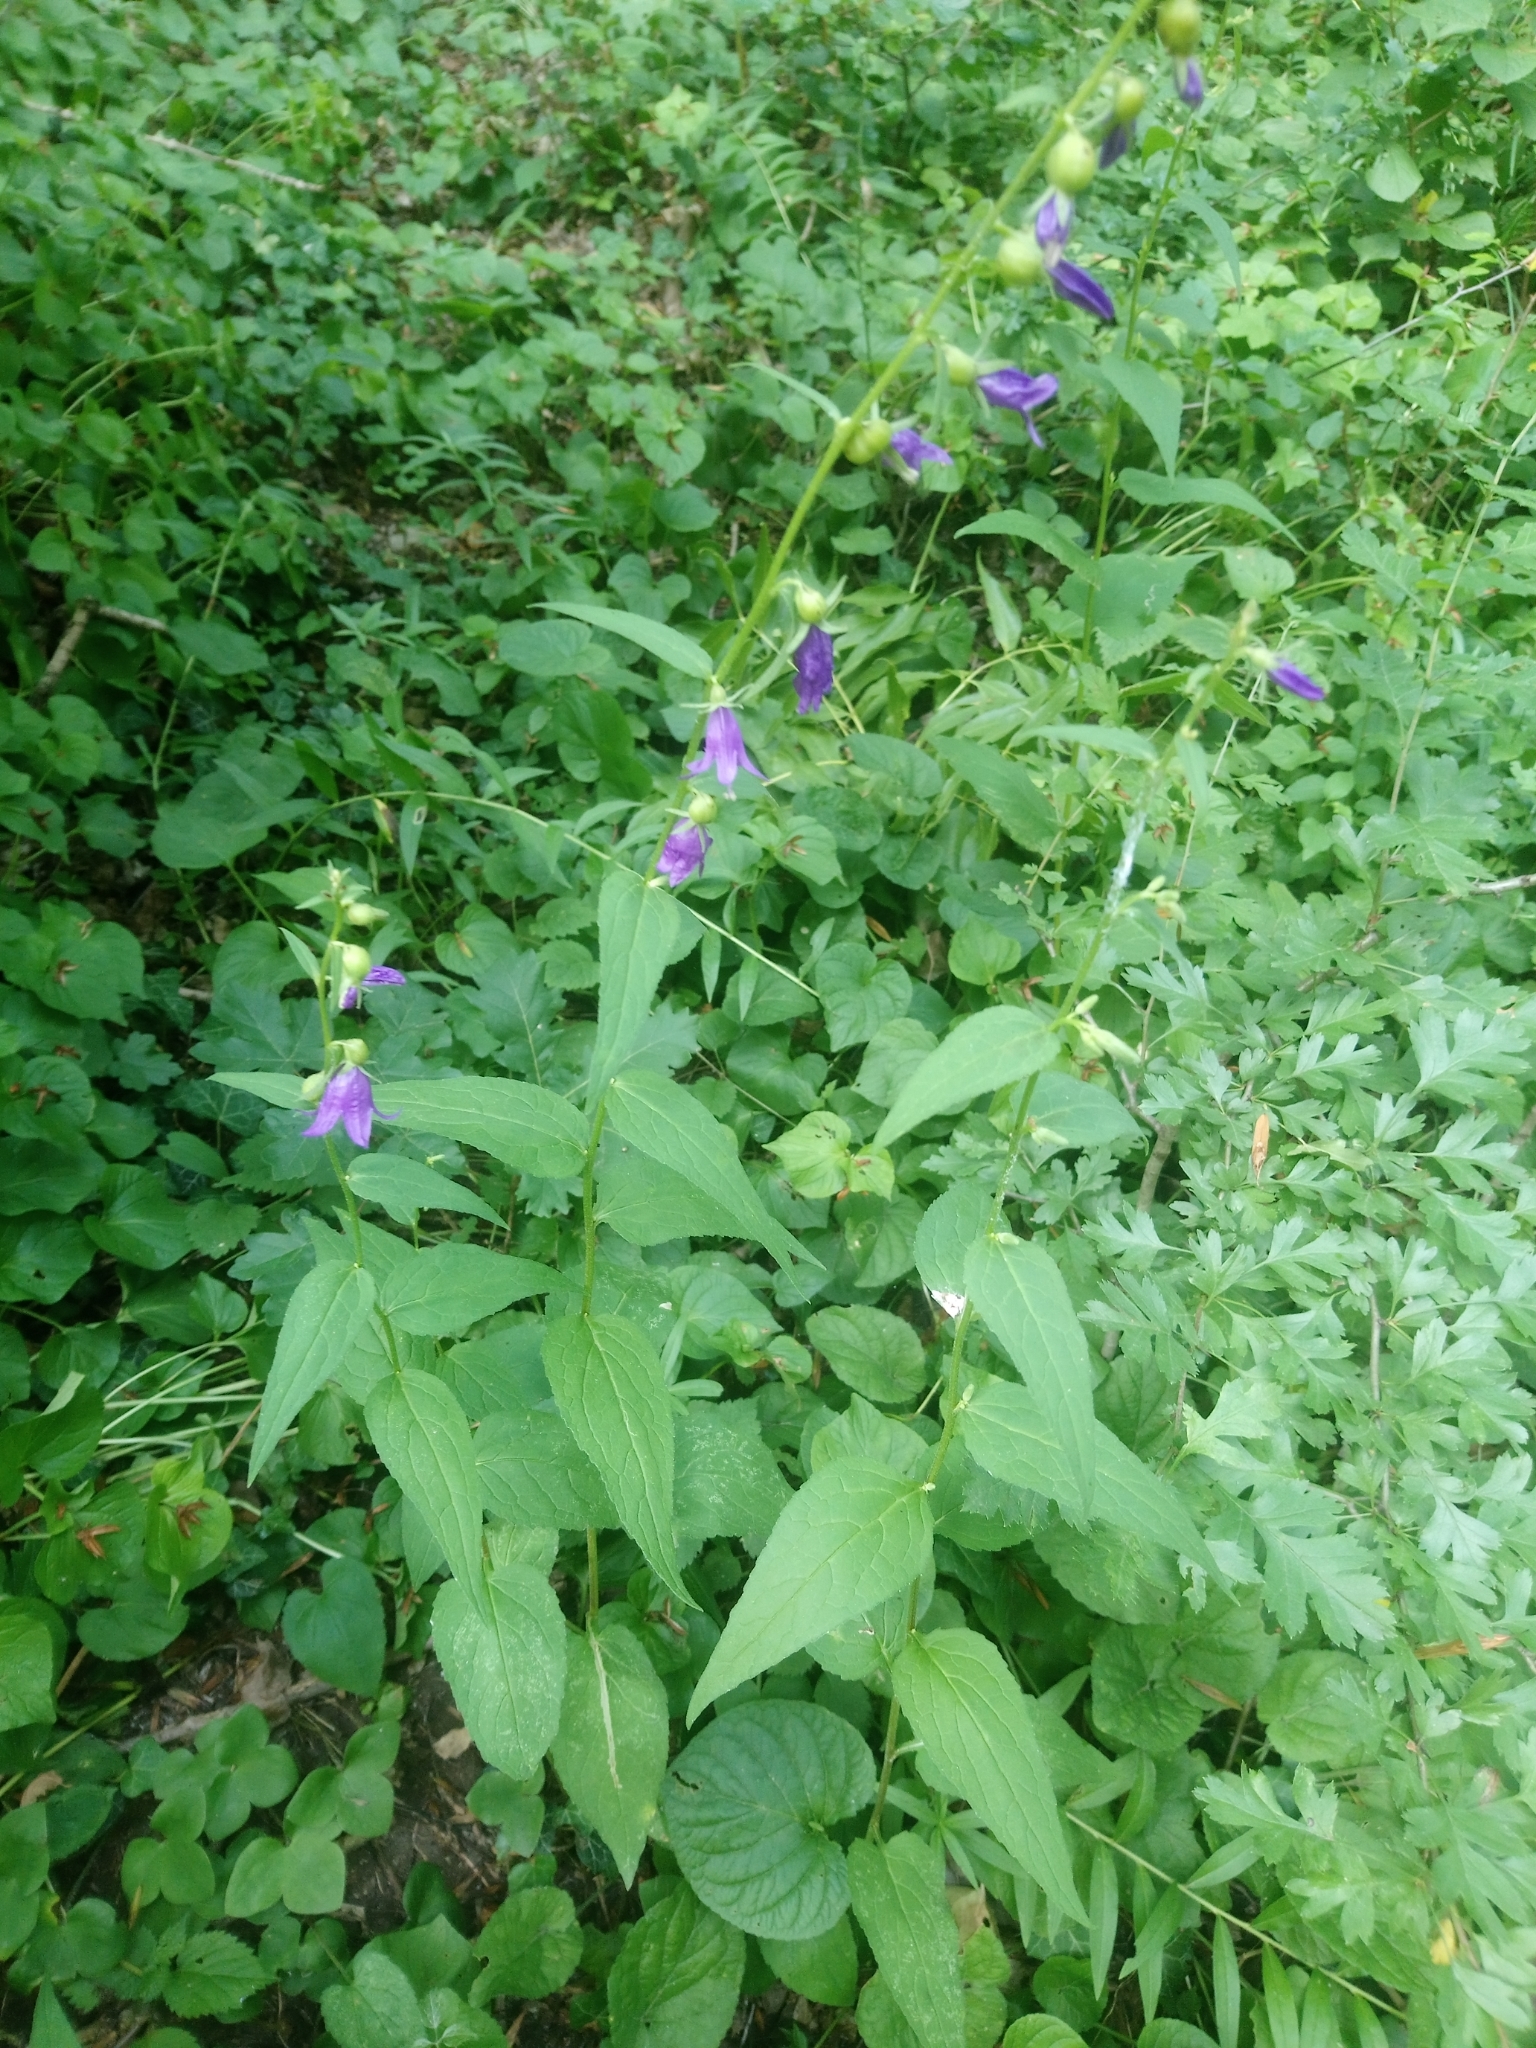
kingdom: Plantae
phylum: Tracheophyta
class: Magnoliopsida
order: Asterales
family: Campanulaceae
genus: Campanula
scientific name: Campanula rapunculoides
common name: Creeping bellflower
